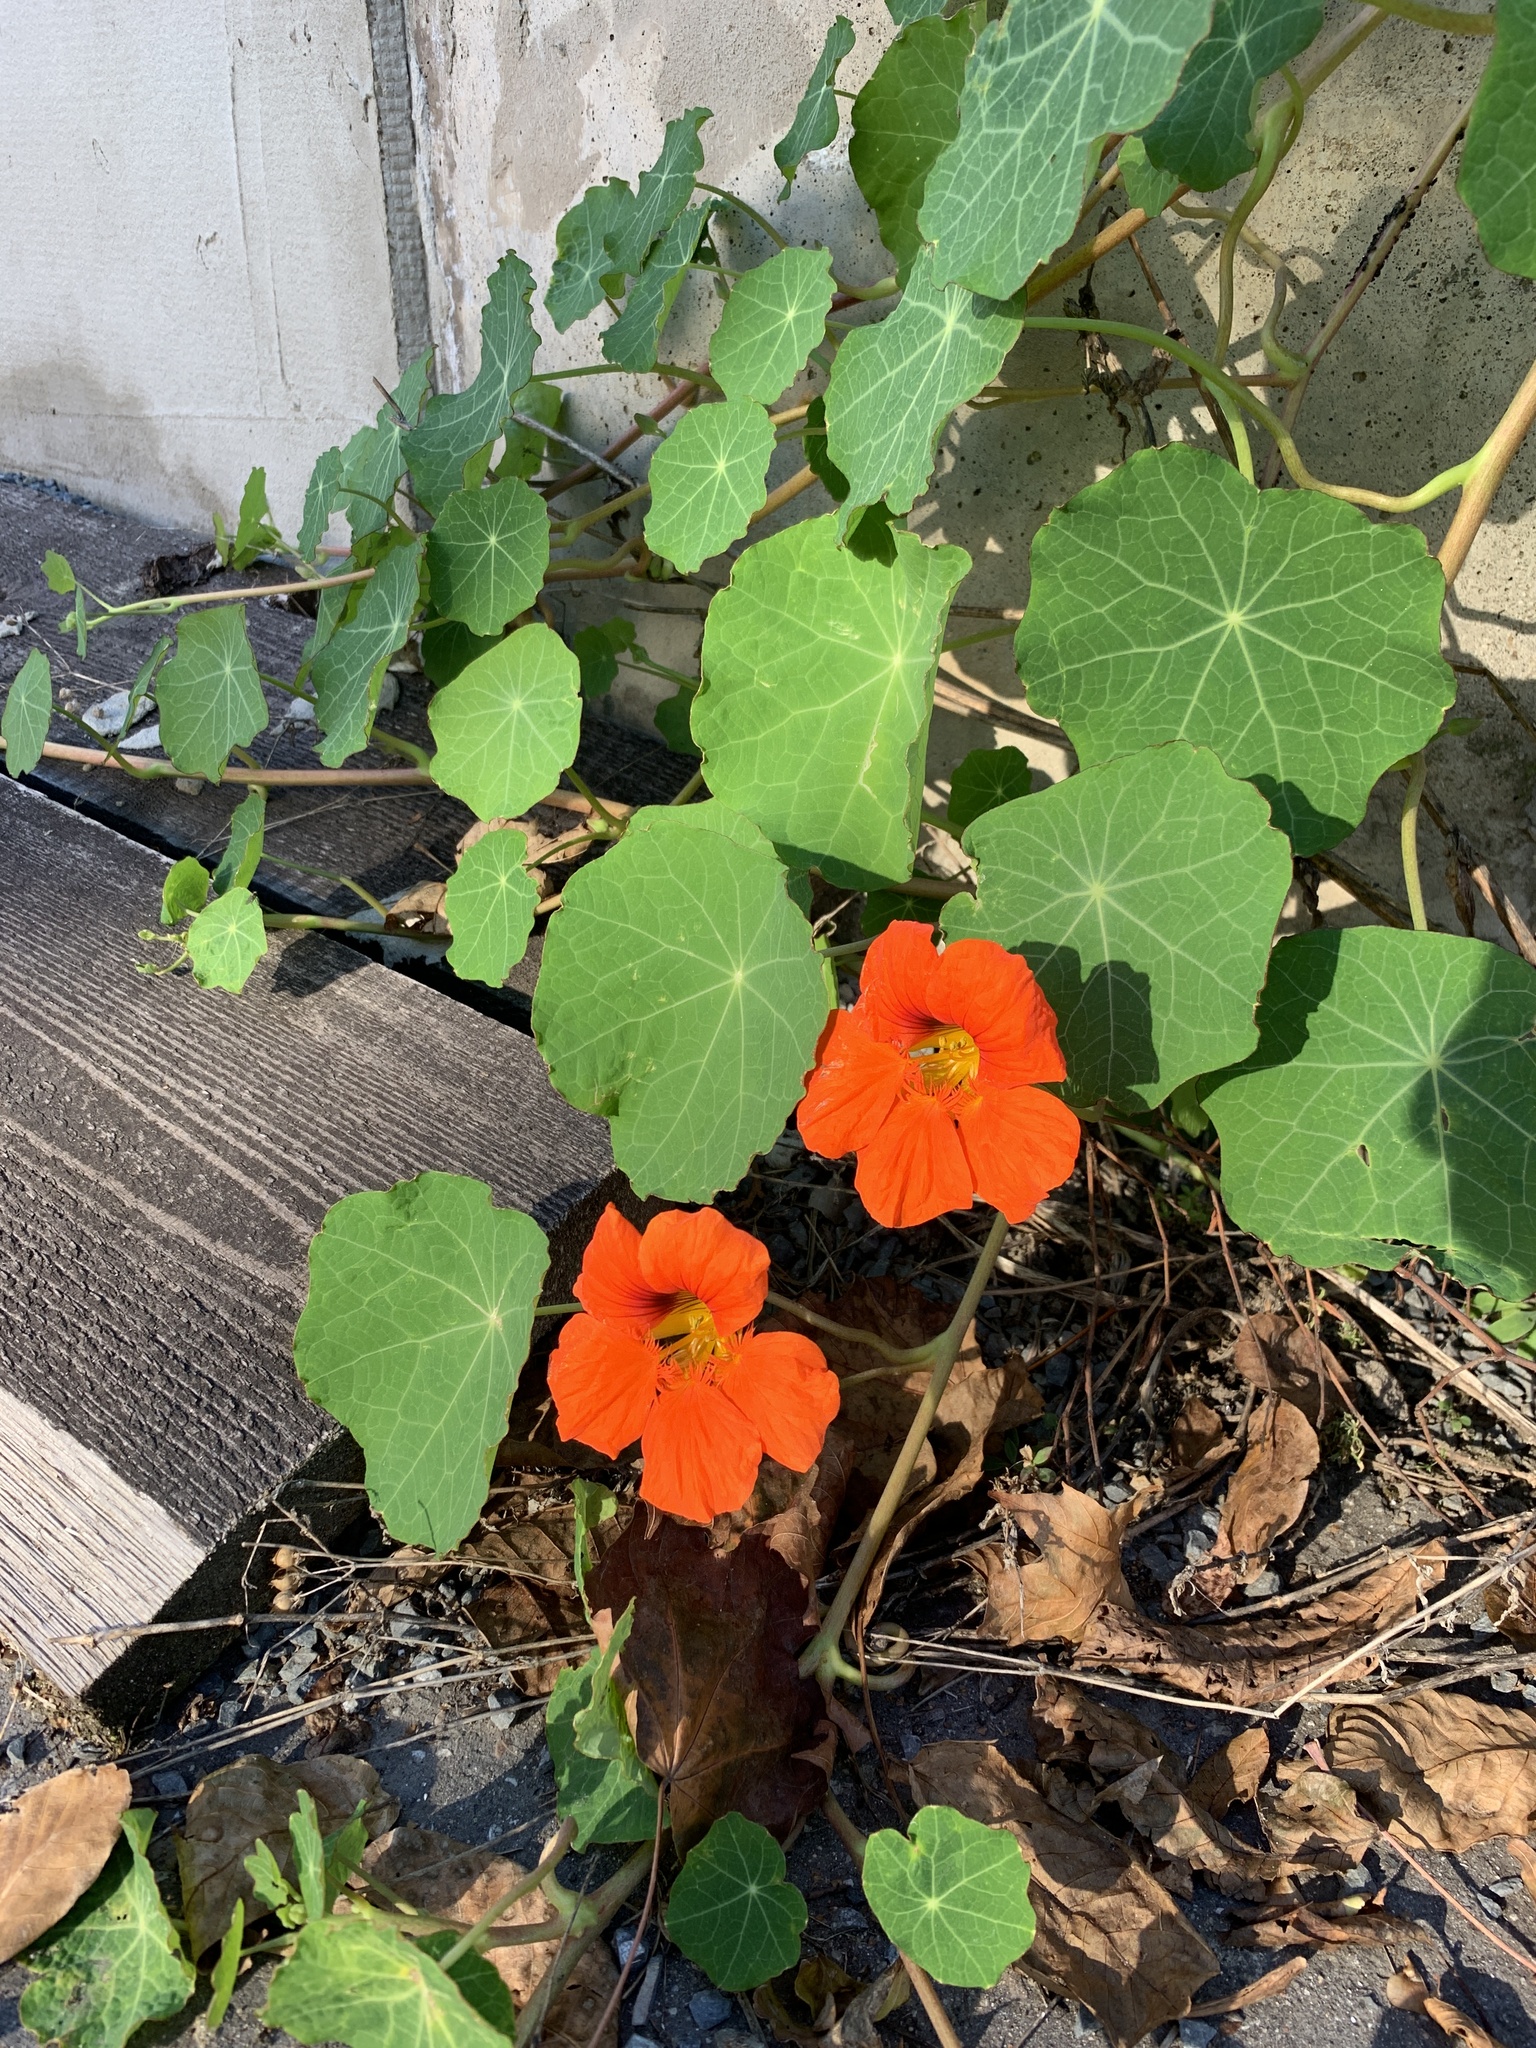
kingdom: Plantae
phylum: Tracheophyta
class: Magnoliopsida
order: Brassicales
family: Tropaeolaceae
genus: Tropaeolum
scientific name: Tropaeolum majus
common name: Nasturtium
